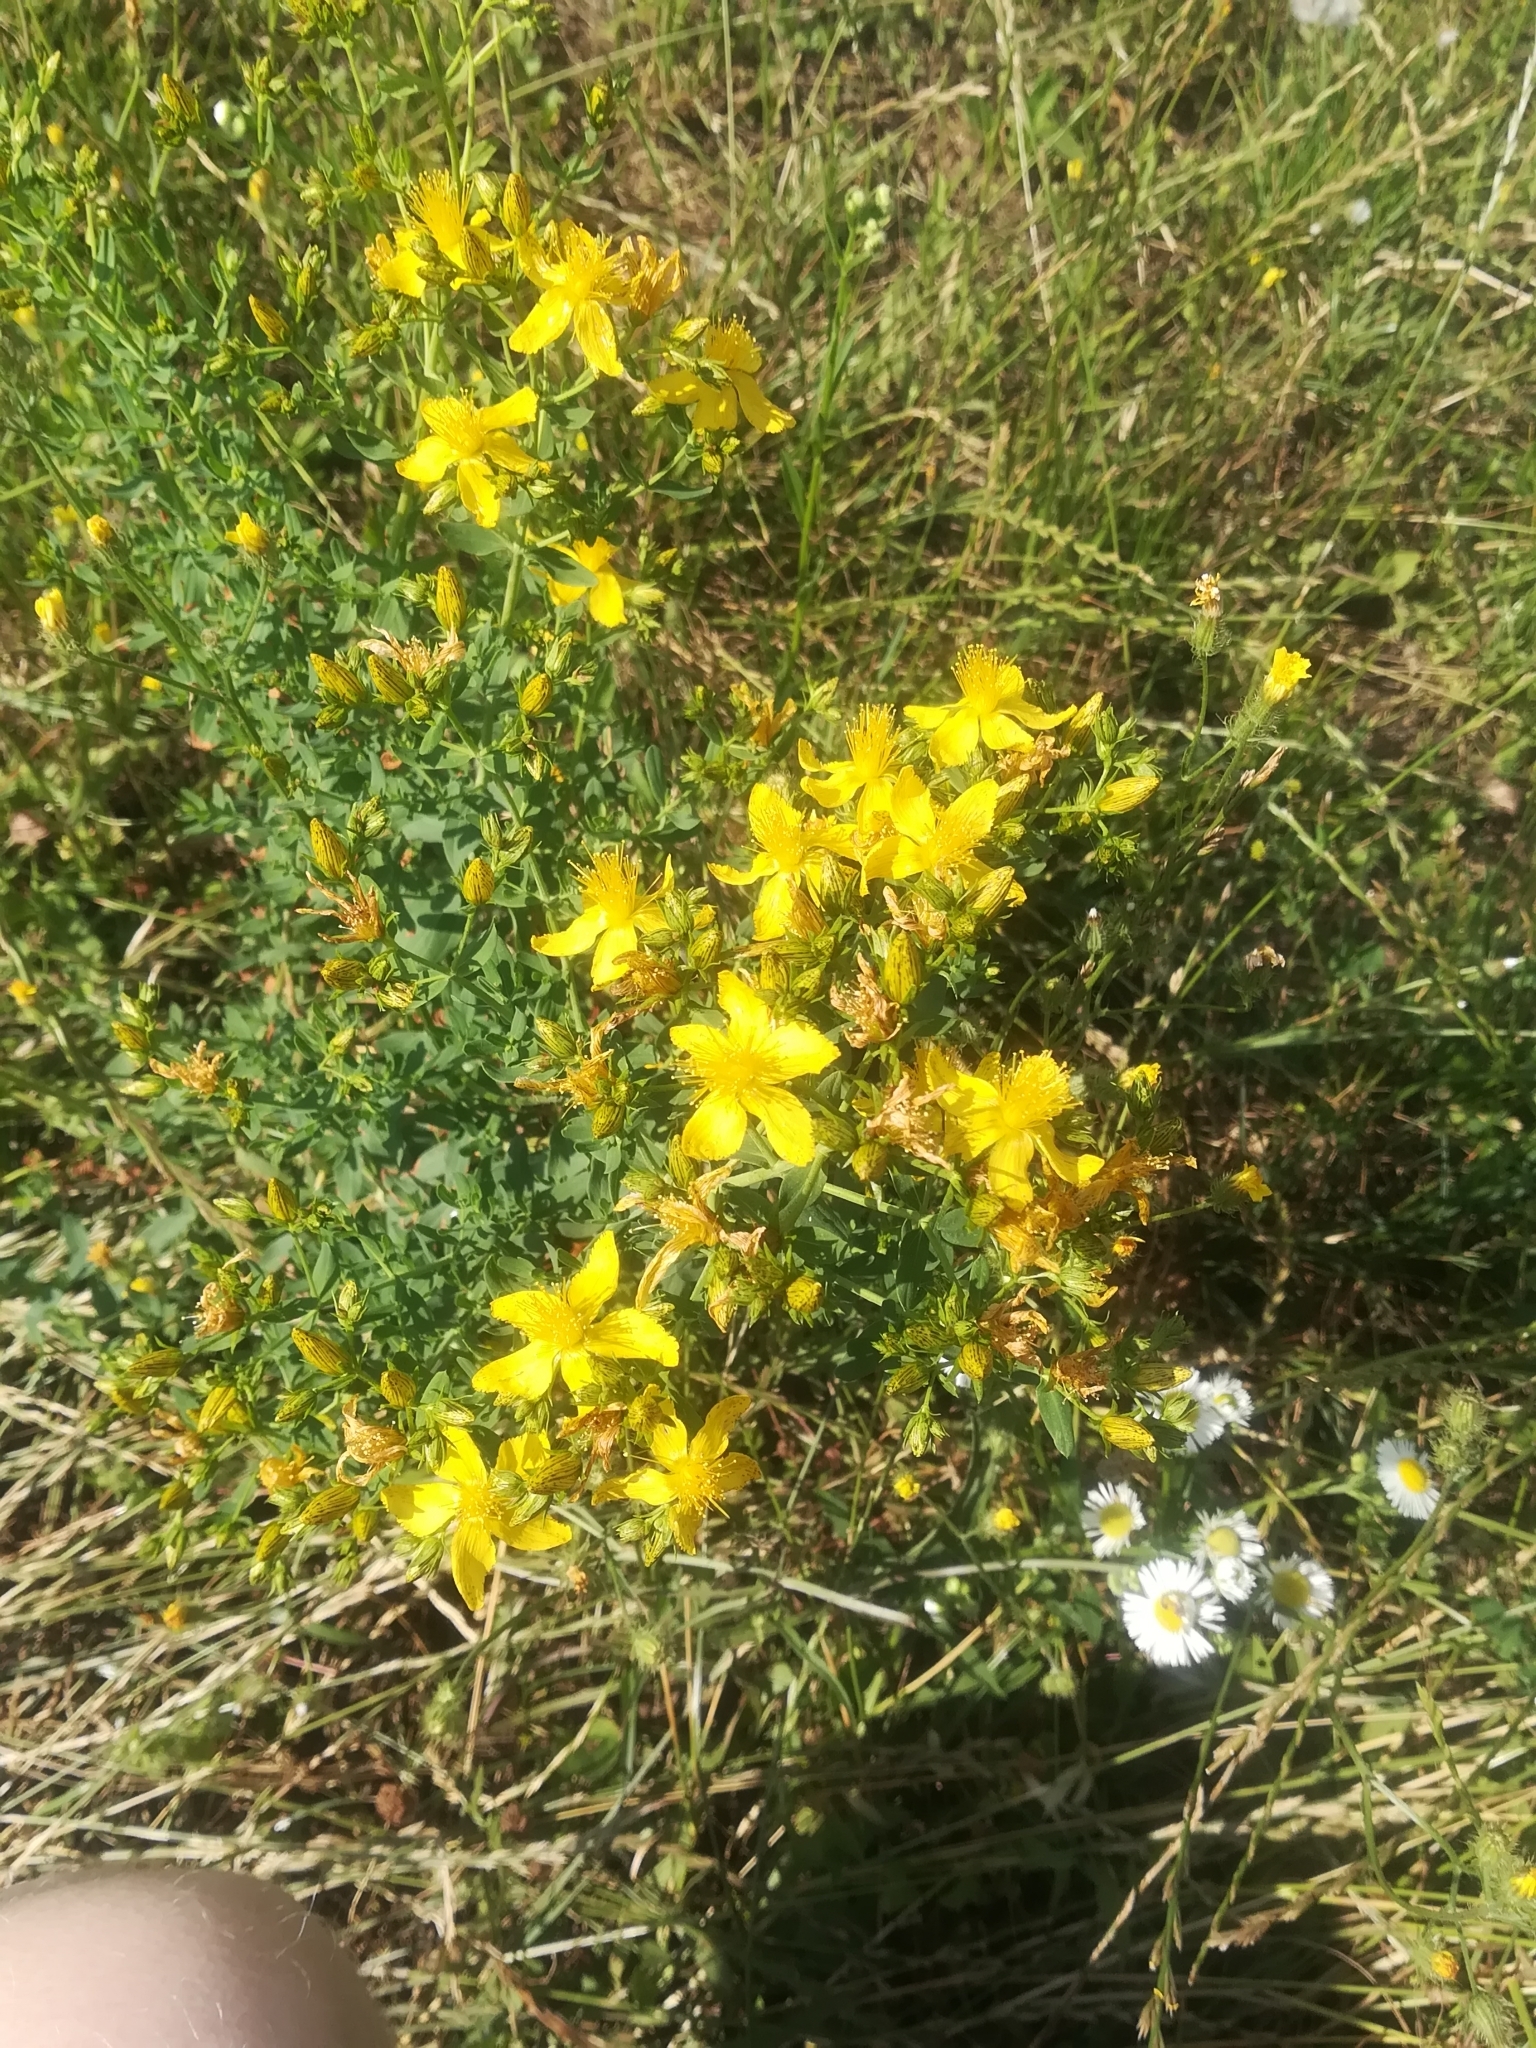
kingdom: Plantae
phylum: Tracheophyta
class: Magnoliopsida
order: Malpighiales
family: Hypericaceae
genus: Hypericum
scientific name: Hypericum perforatum
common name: Common st. johnswort
